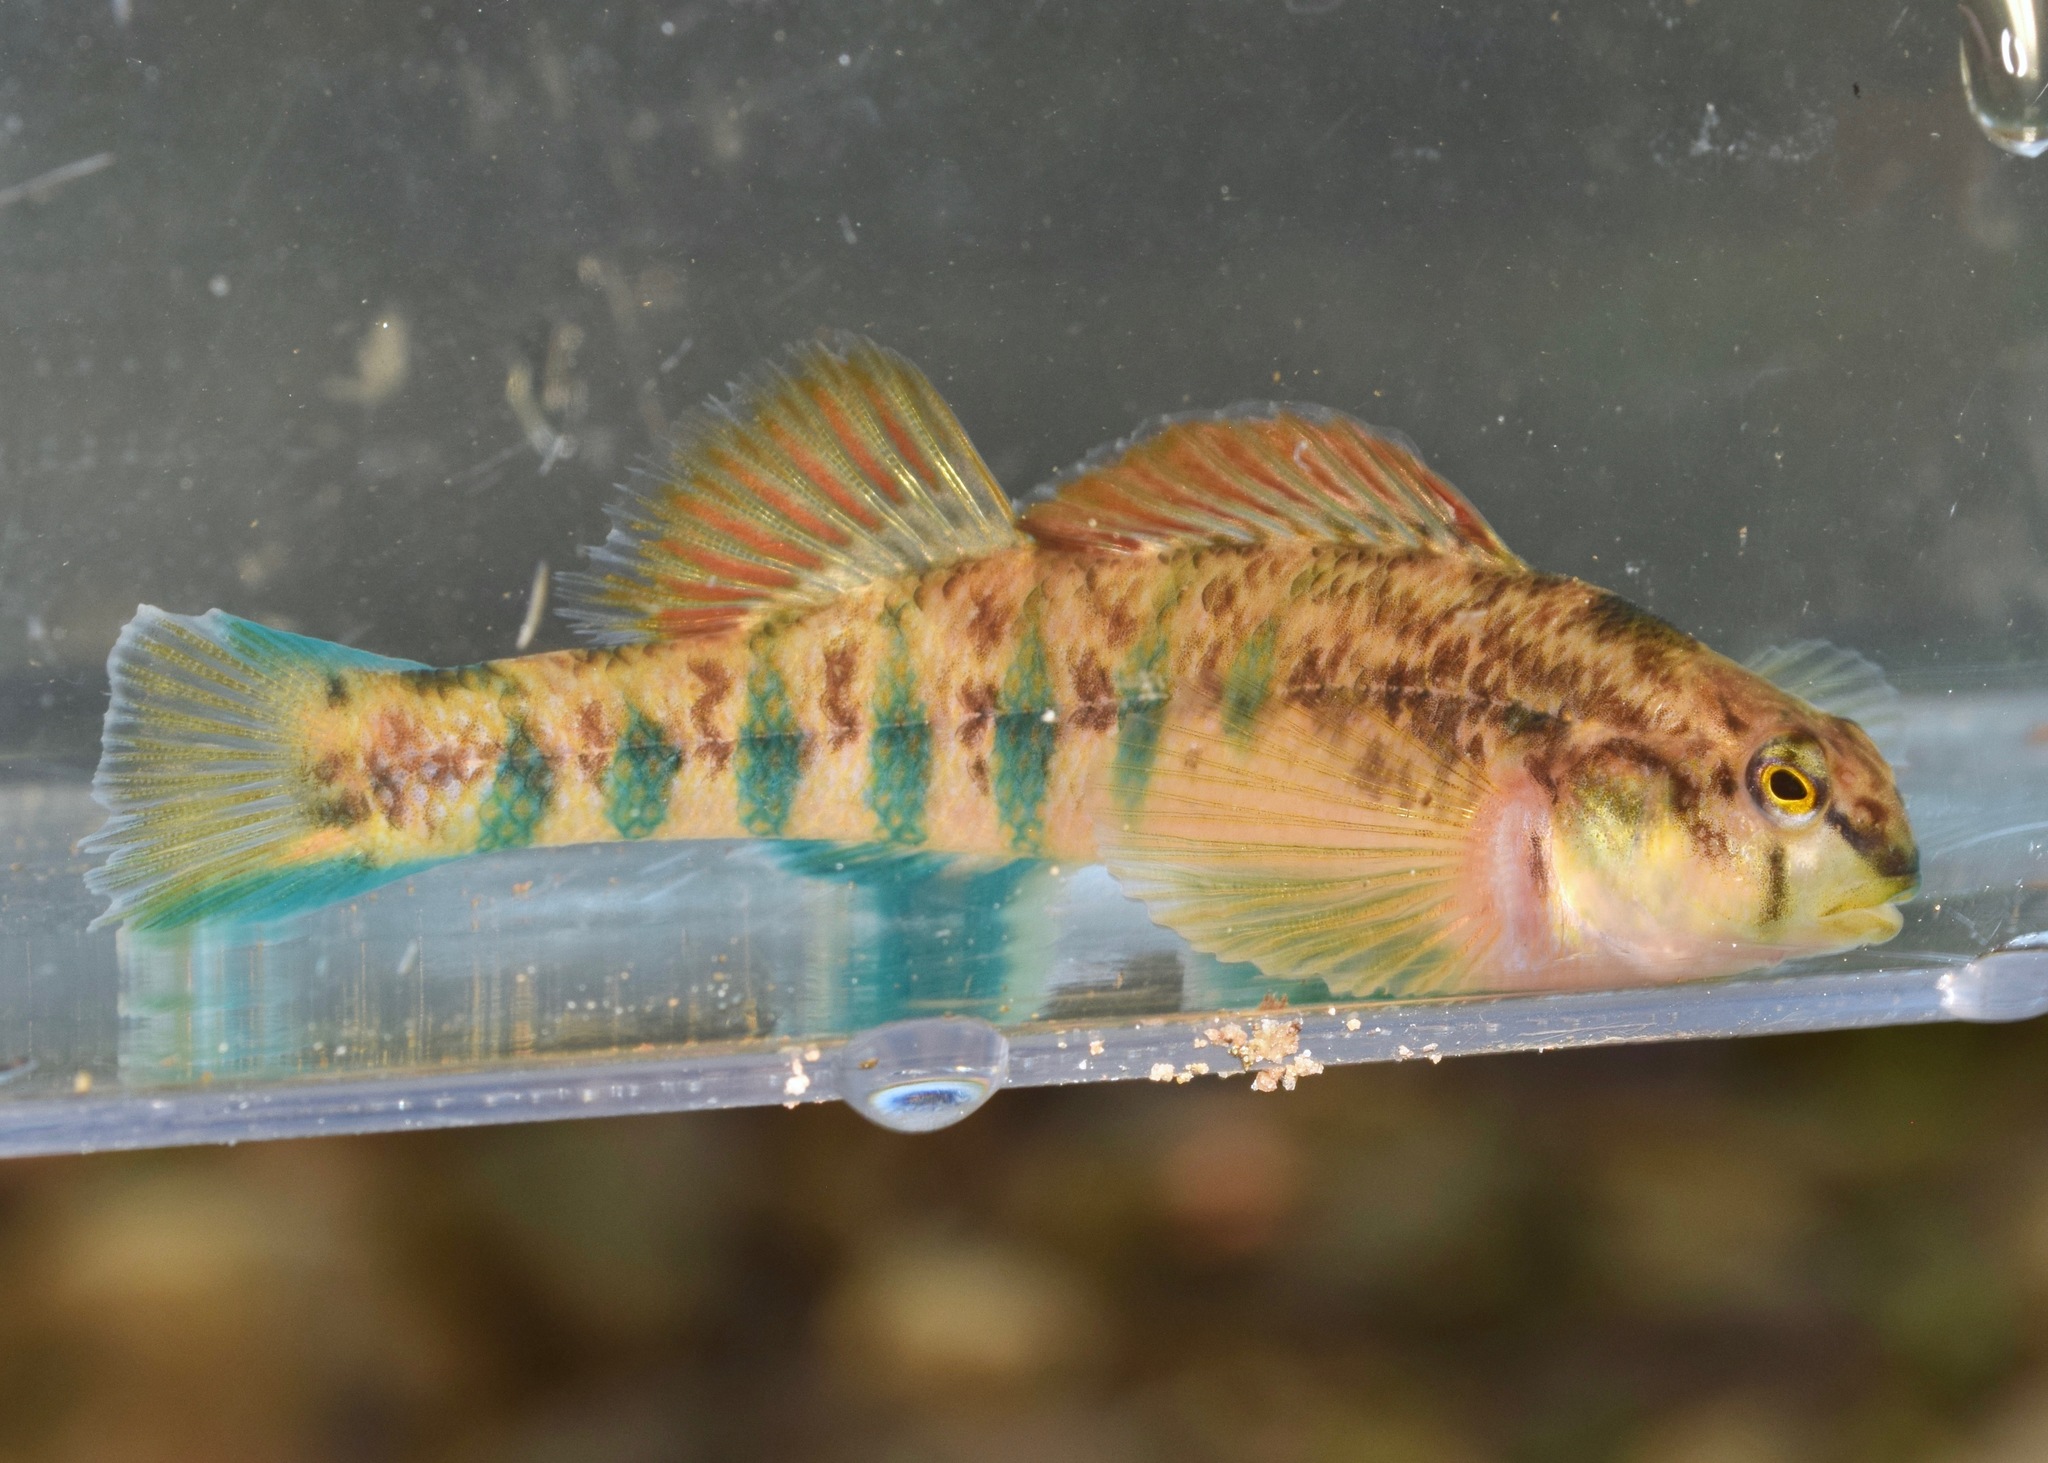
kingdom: Animalia
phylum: Chordata
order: Perciformes
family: Percidae
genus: Etheostoma
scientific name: Etheostoma scotti
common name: Cherokee darter
